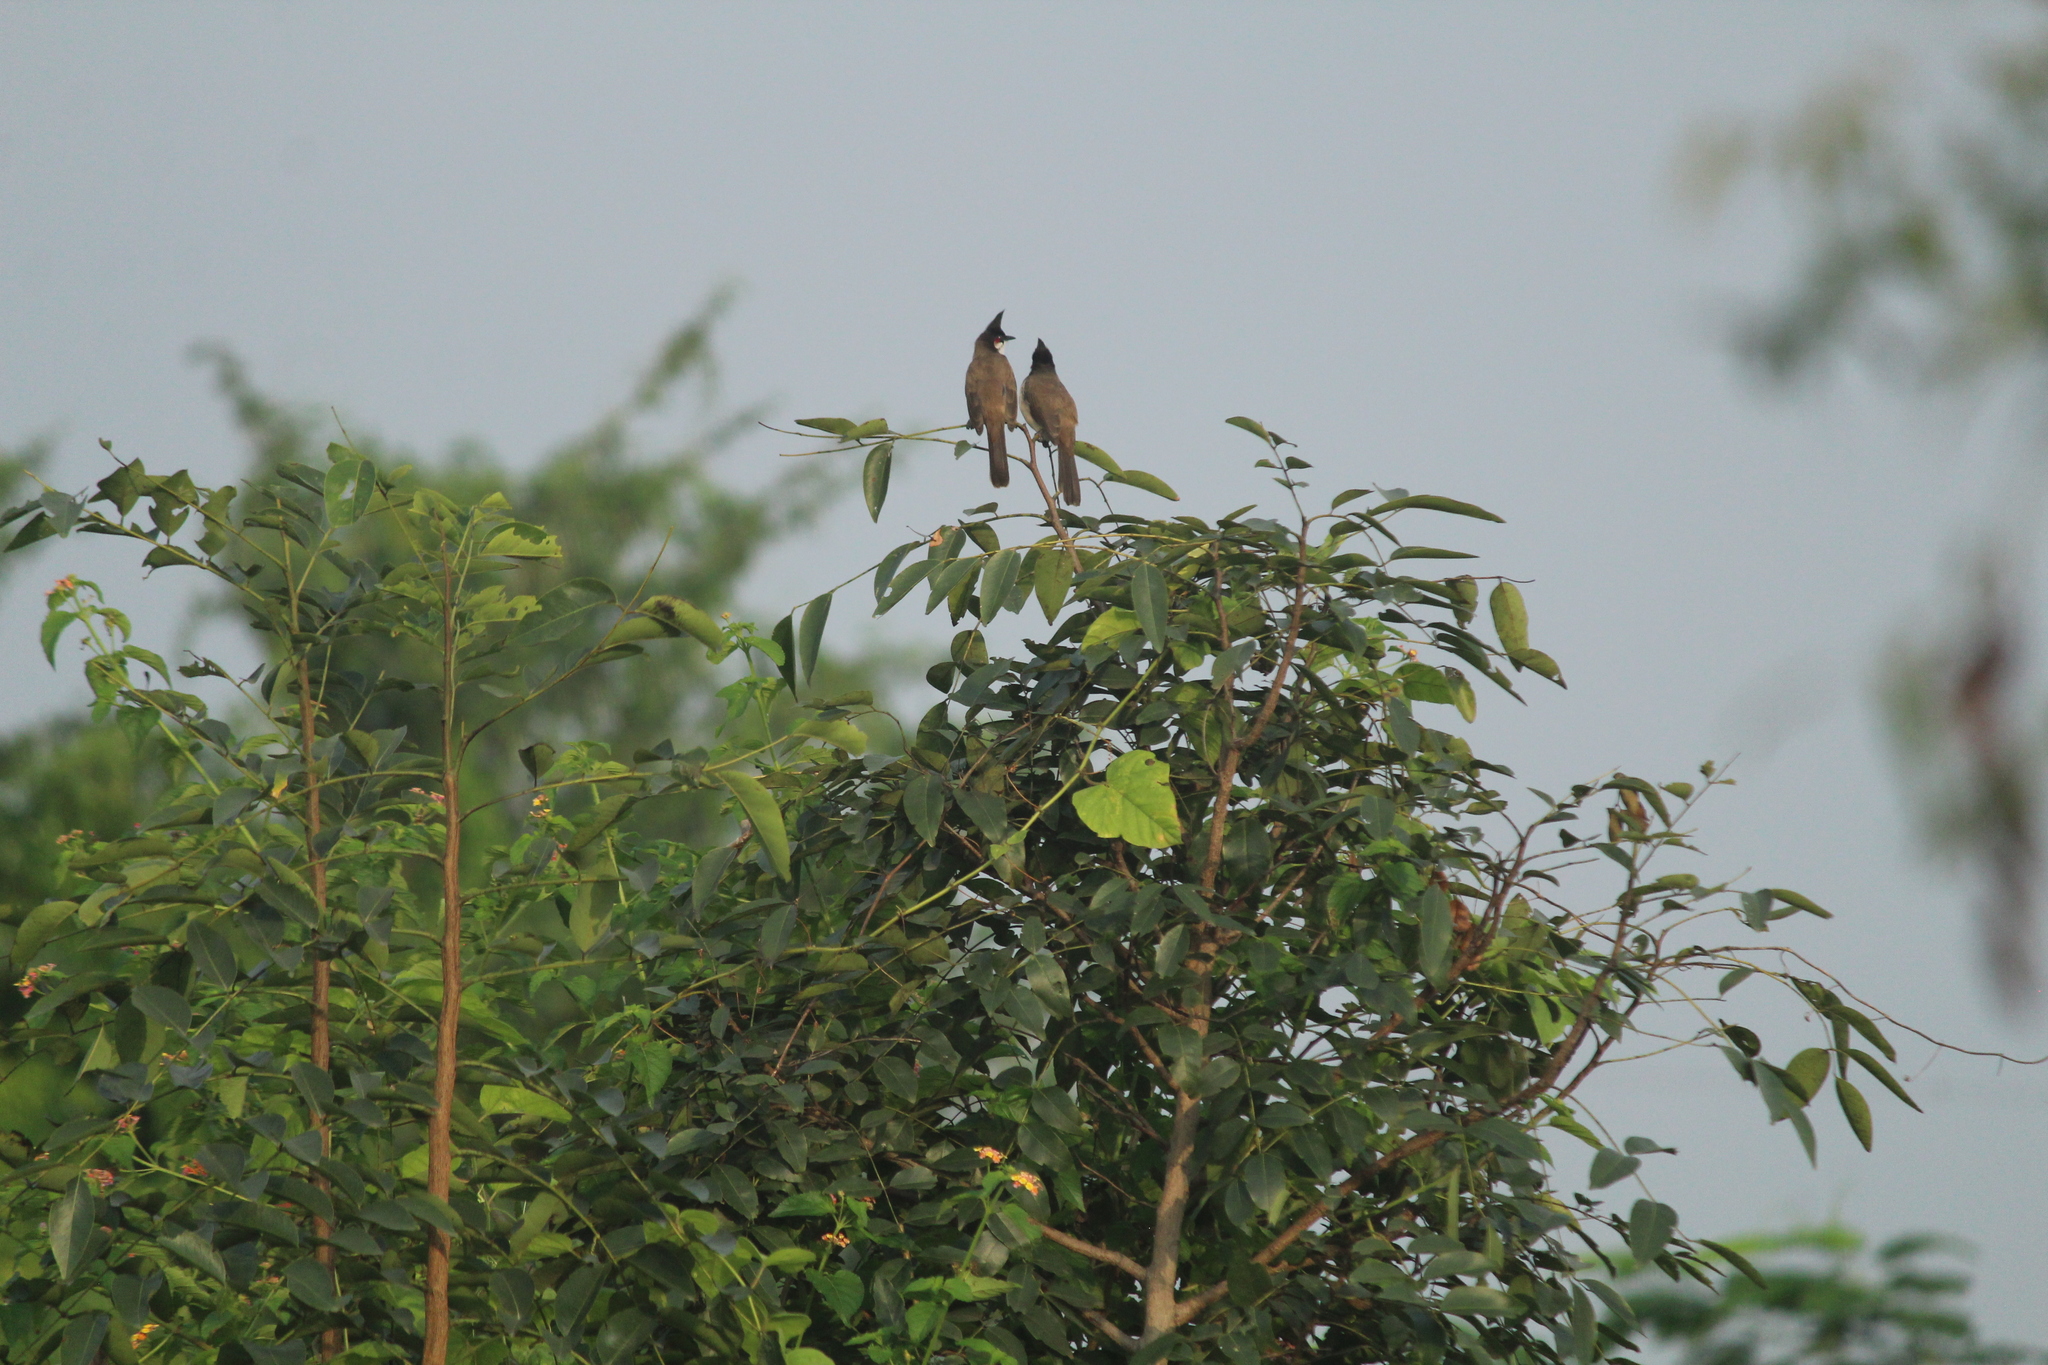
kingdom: Animalia
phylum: Chordata
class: Aves
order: Passeriformes
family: Pycnonotidae
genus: Pycnonotus
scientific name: Pycnonotus jocosus
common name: Red-whiskered bulbul
